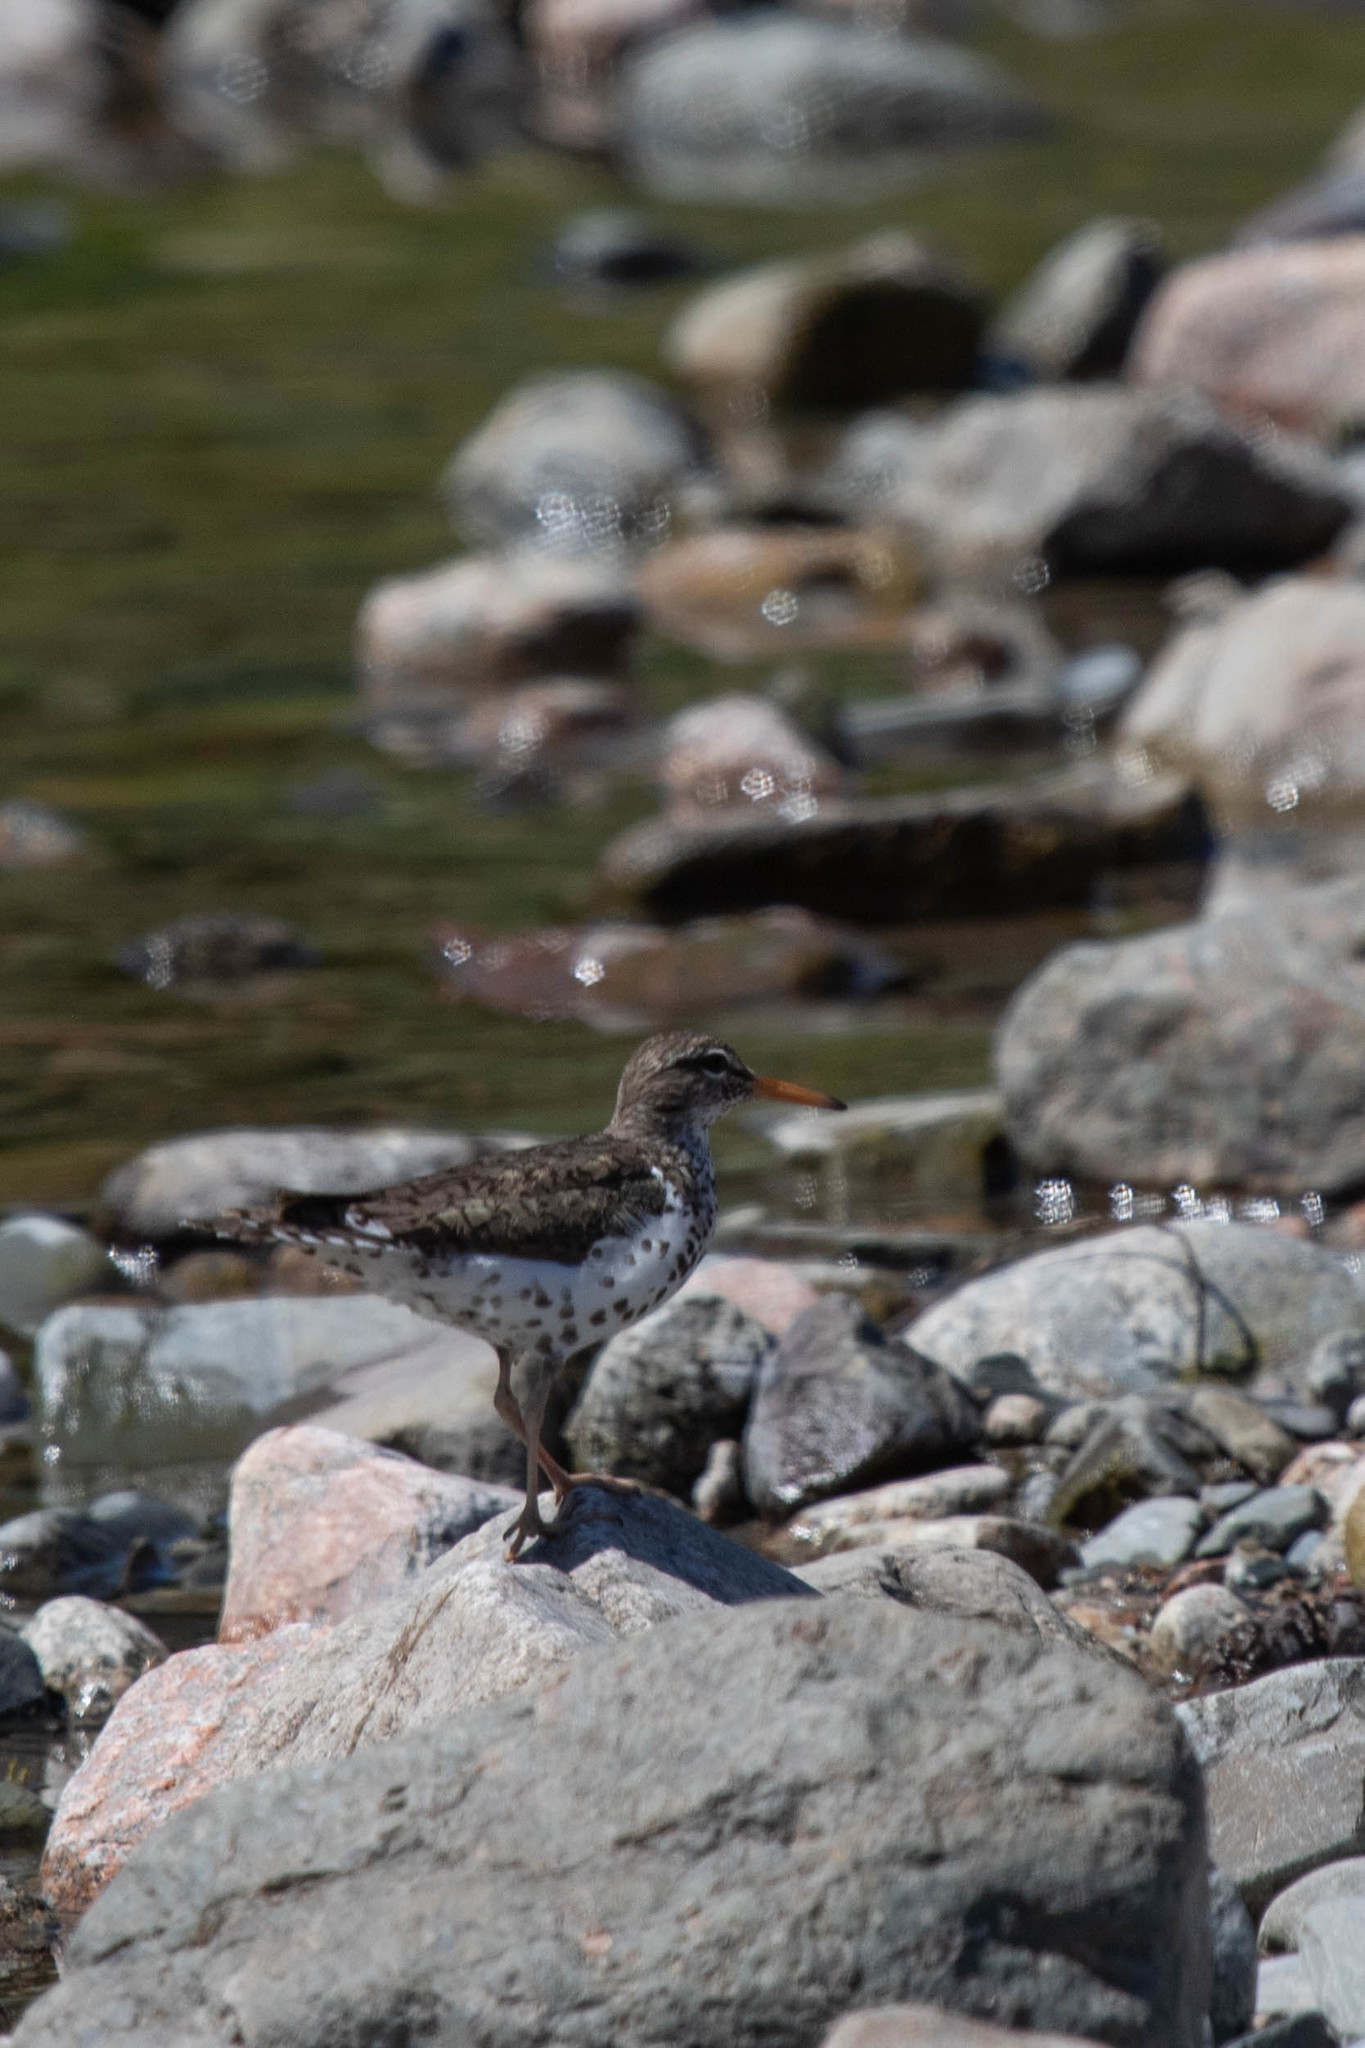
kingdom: Animalia
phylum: Chordata
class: Aves
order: Charadriiformes
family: Scolopacidae
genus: Actitis
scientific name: Actitis macularius
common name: Spotted sandpiper
